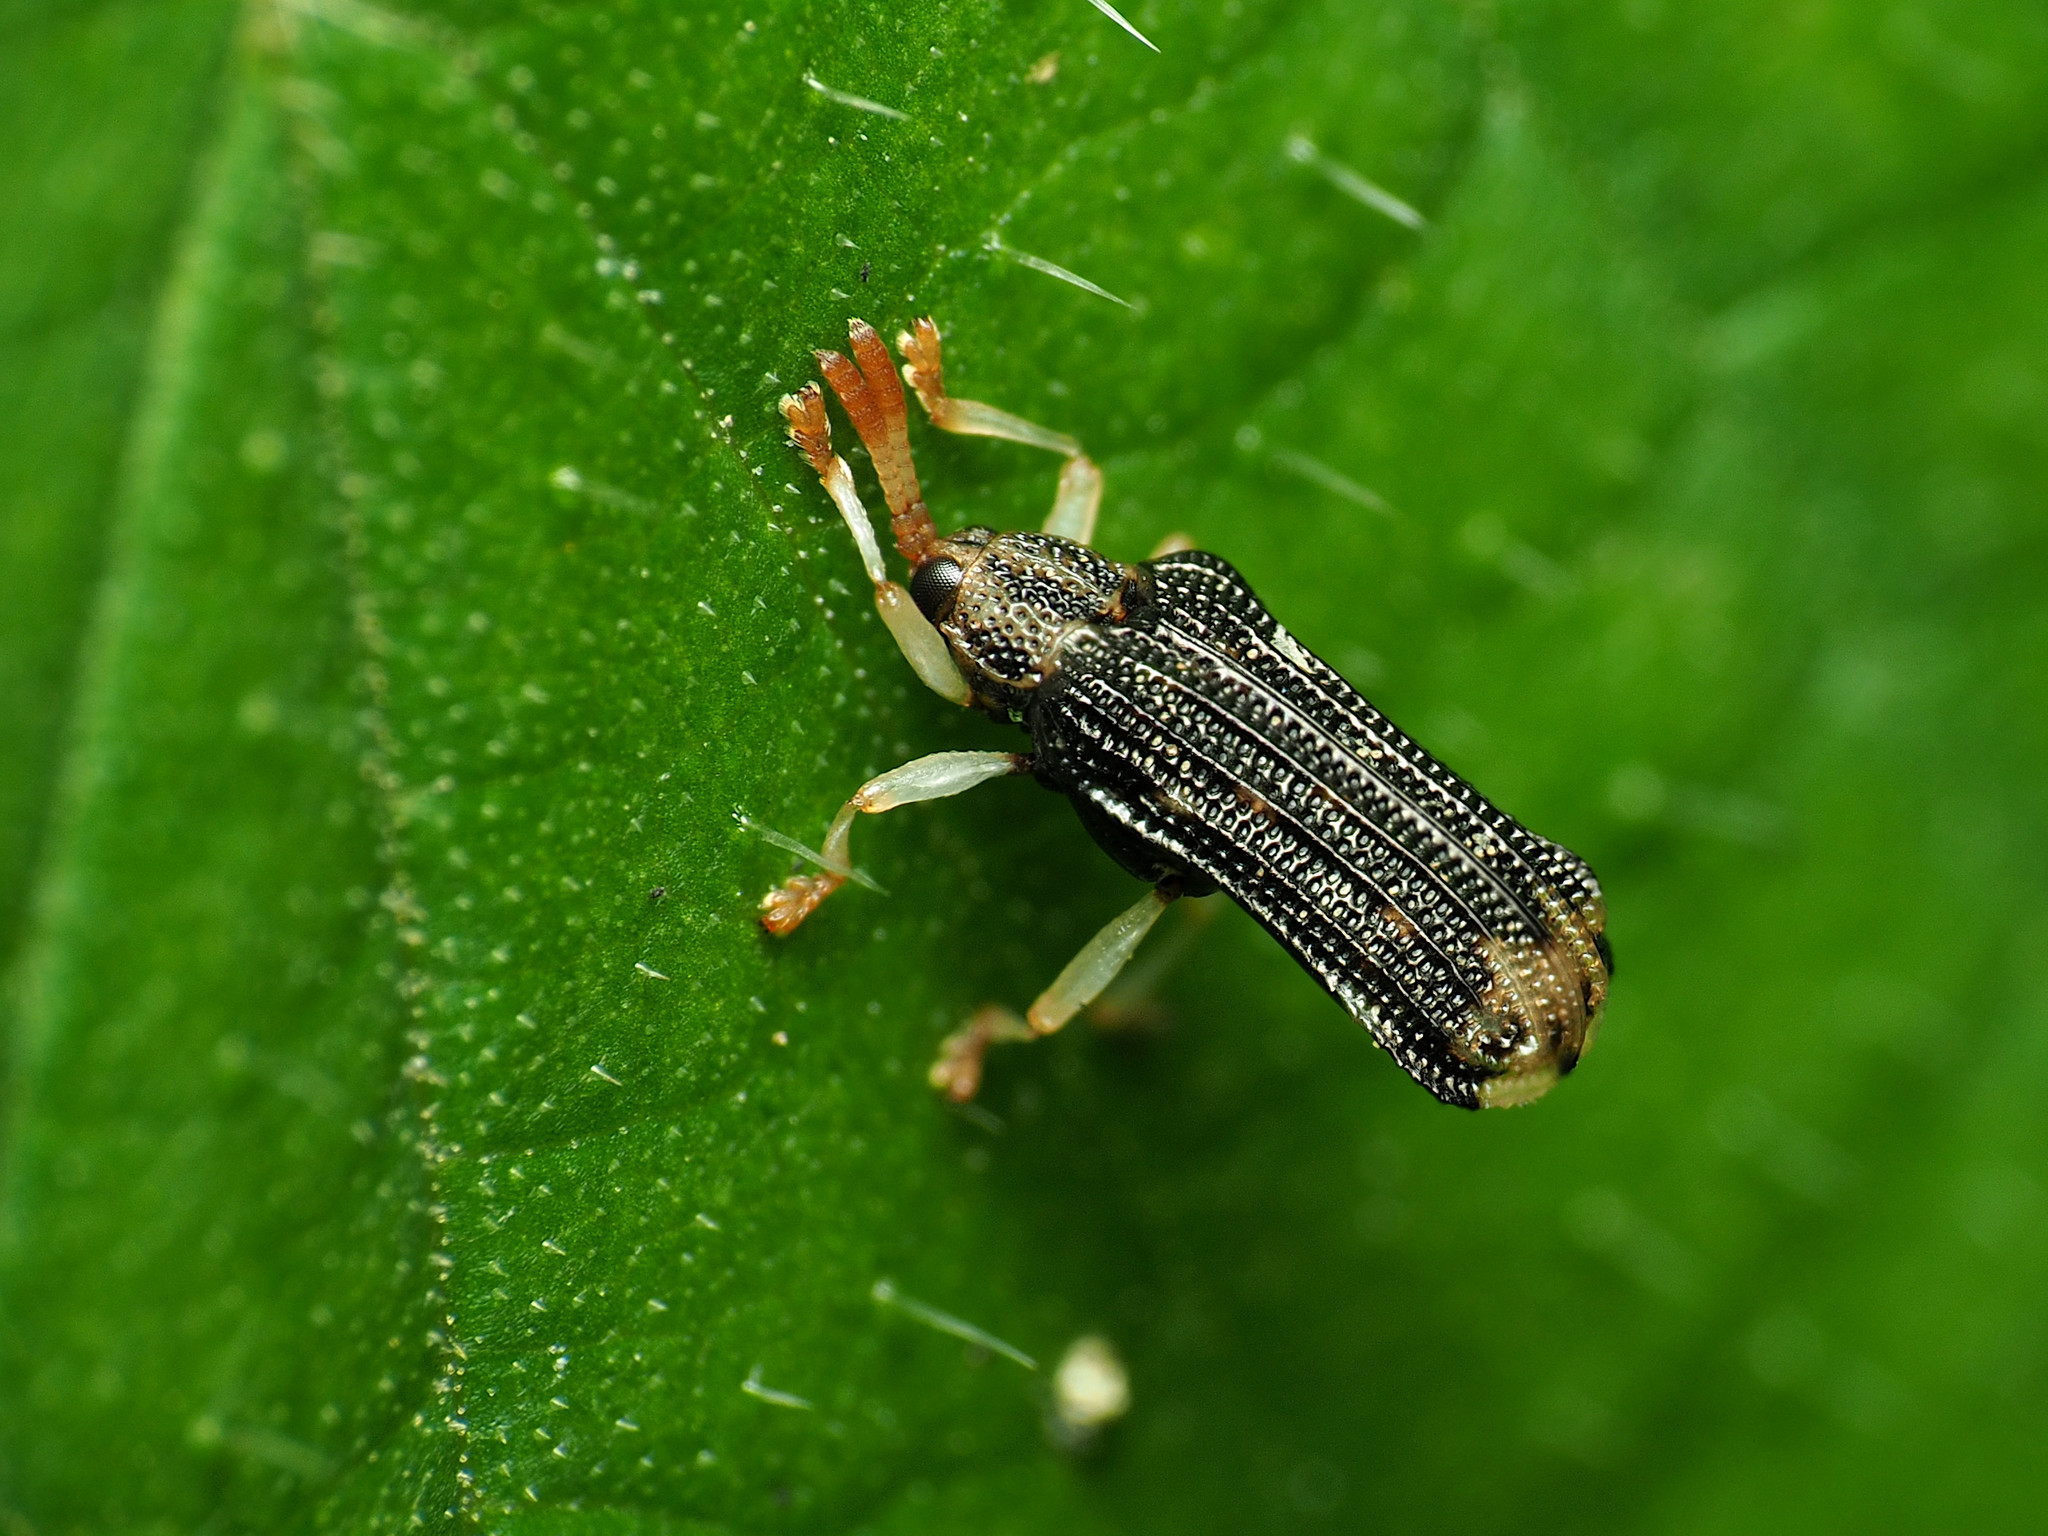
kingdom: Animalia
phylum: Arthropoda
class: Insecta
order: Coleoptera
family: Chrysomelidae
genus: Sumitrosis
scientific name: Sumitrosis rosea
